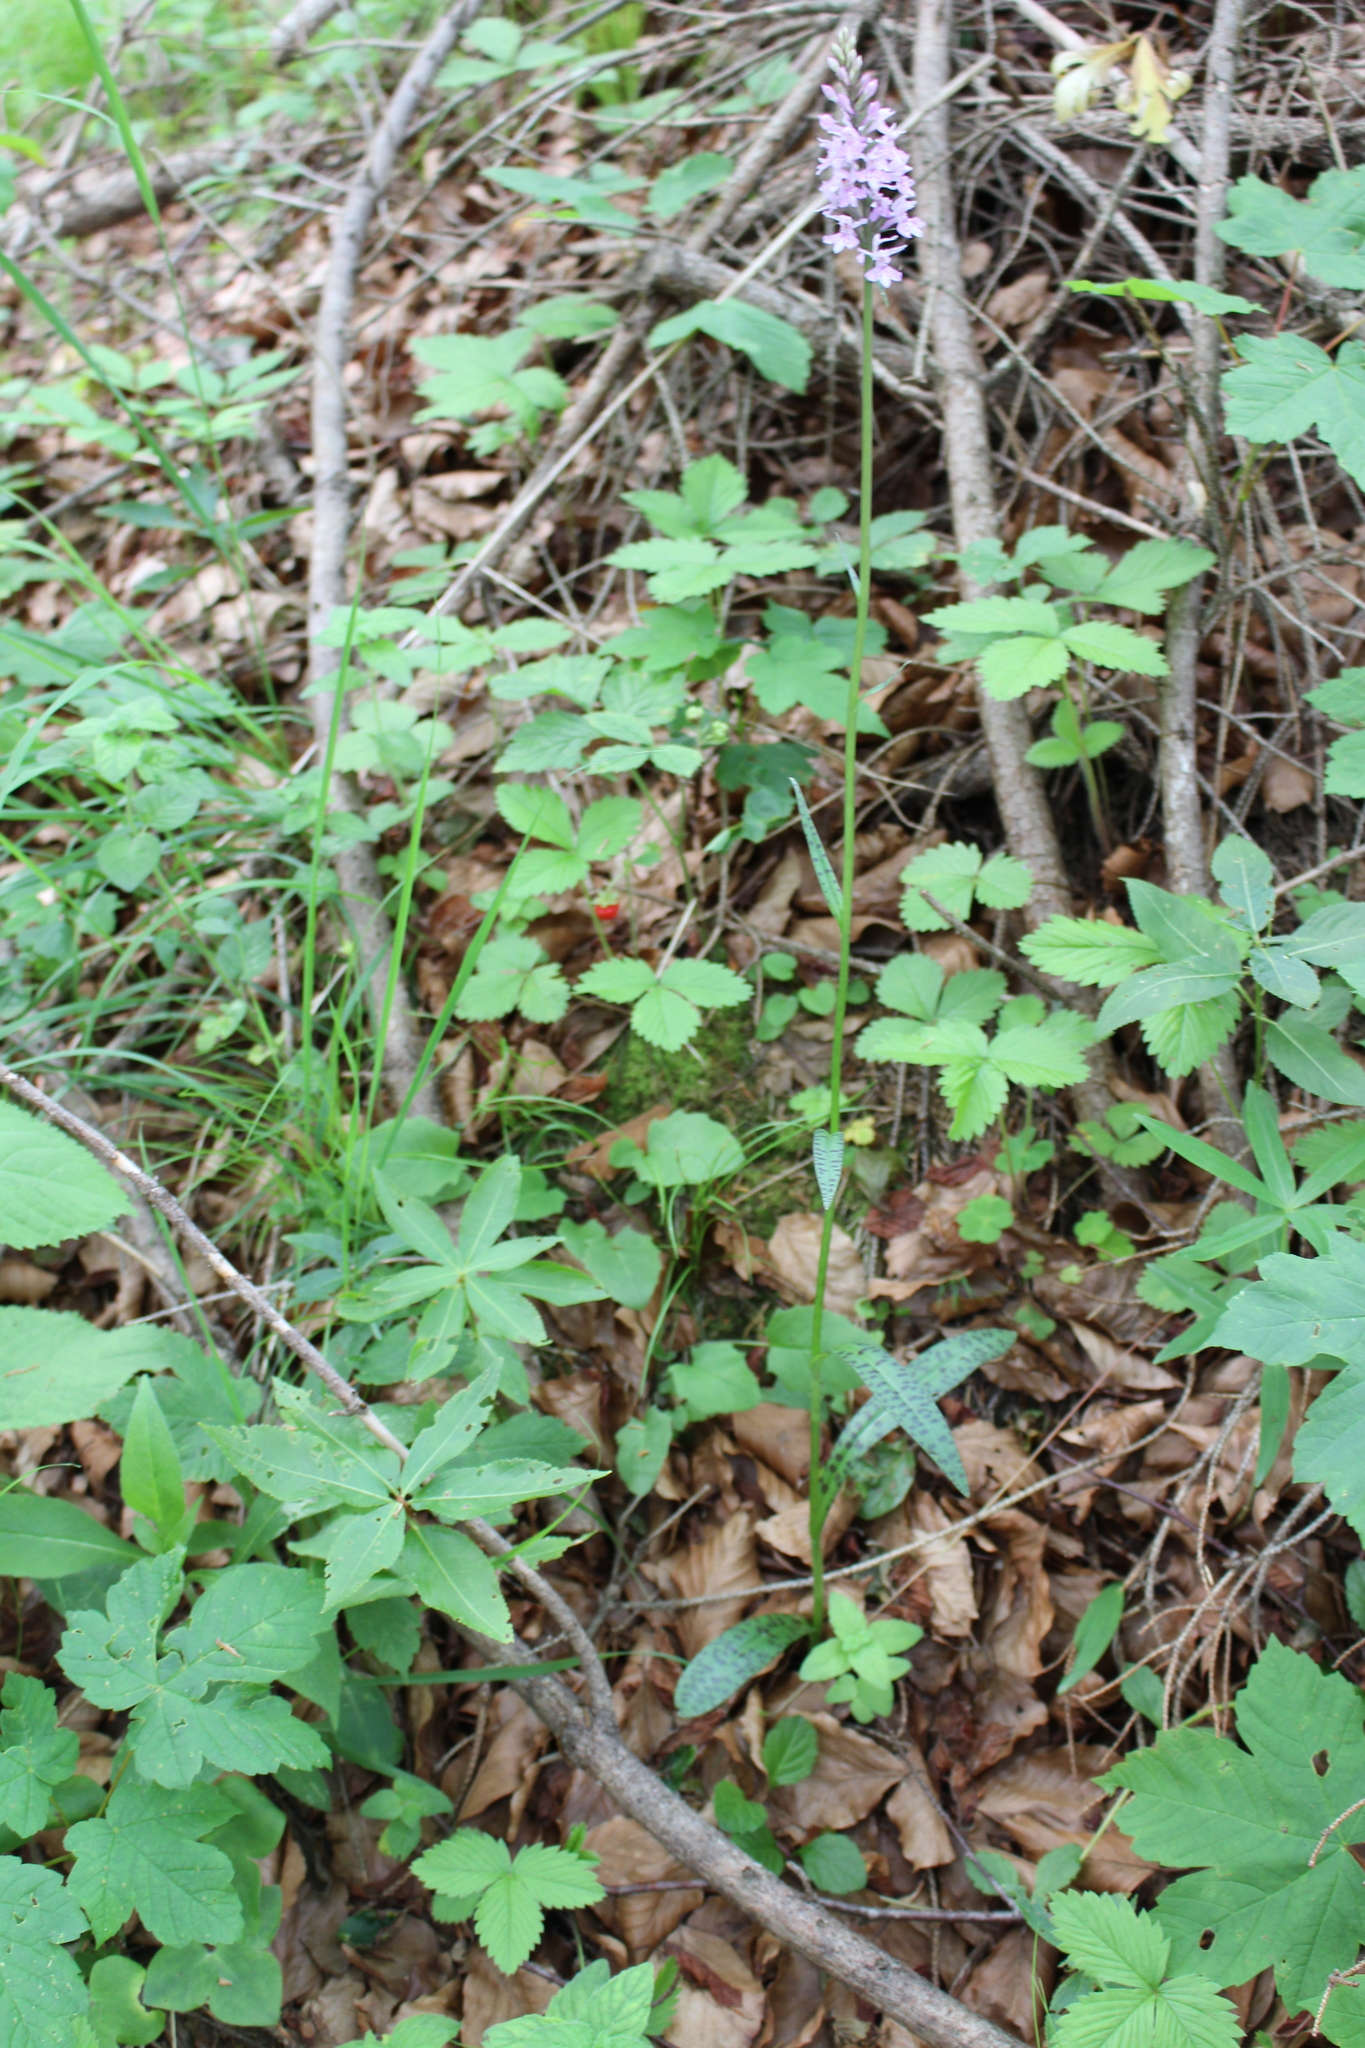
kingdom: Plantae
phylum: Tracheophyta
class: Liliopsida
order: Asparagales
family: Orchidaceae
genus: Dactylorhiza
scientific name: Dactylorhiza maculata
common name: Heath spotted-orchid
